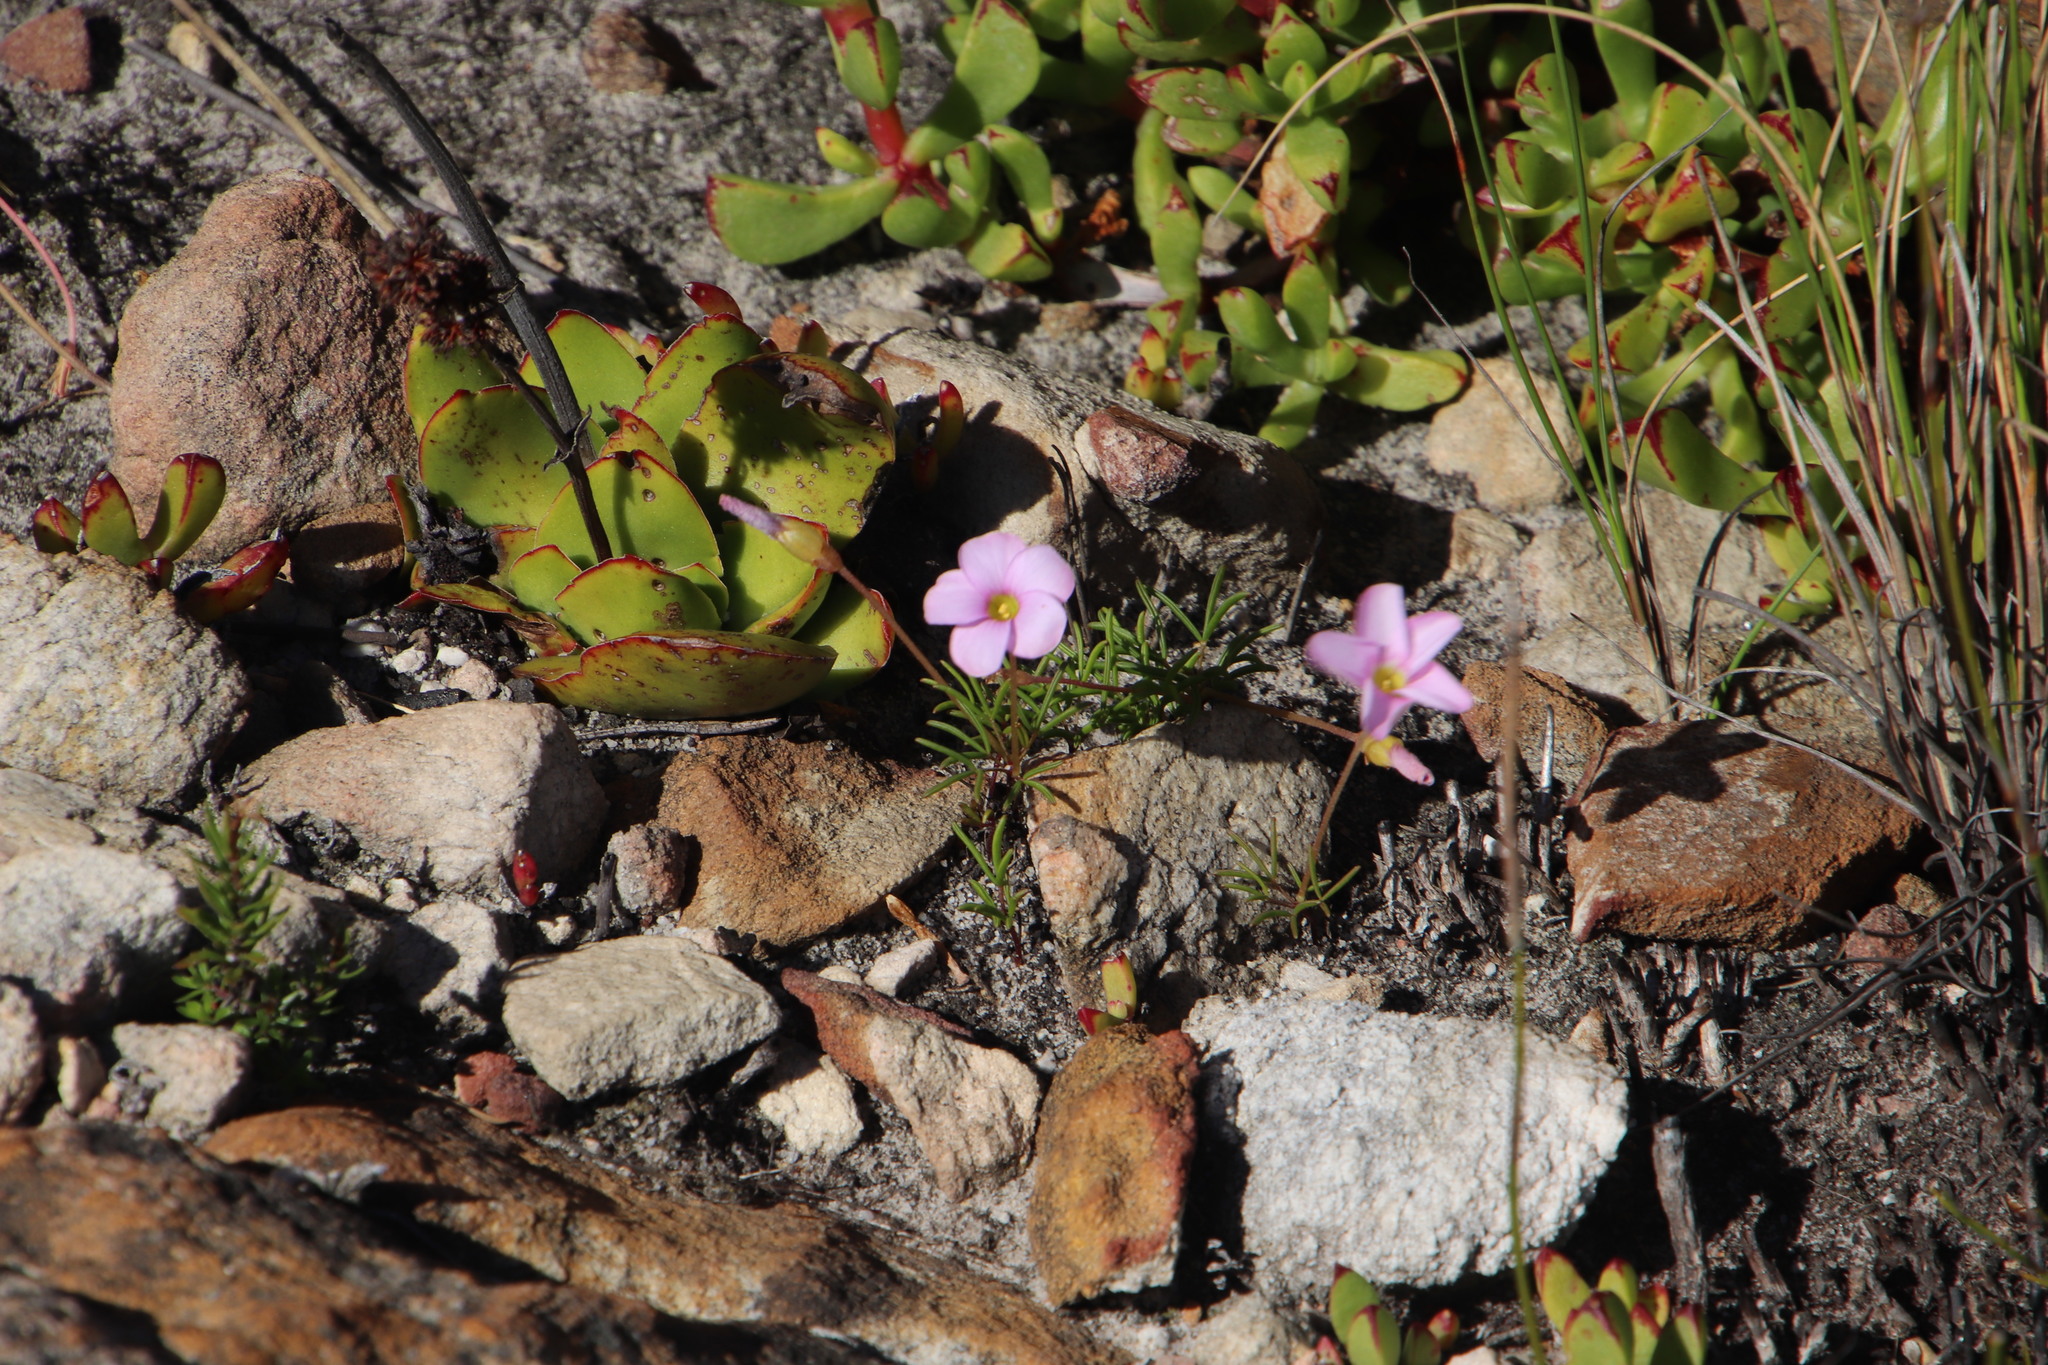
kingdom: Plantae
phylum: Tracheophyta
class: Magnoliopsida
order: Oxalidales
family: Oxalidaceae
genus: Oxalis
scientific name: Oxalis polyphylla
